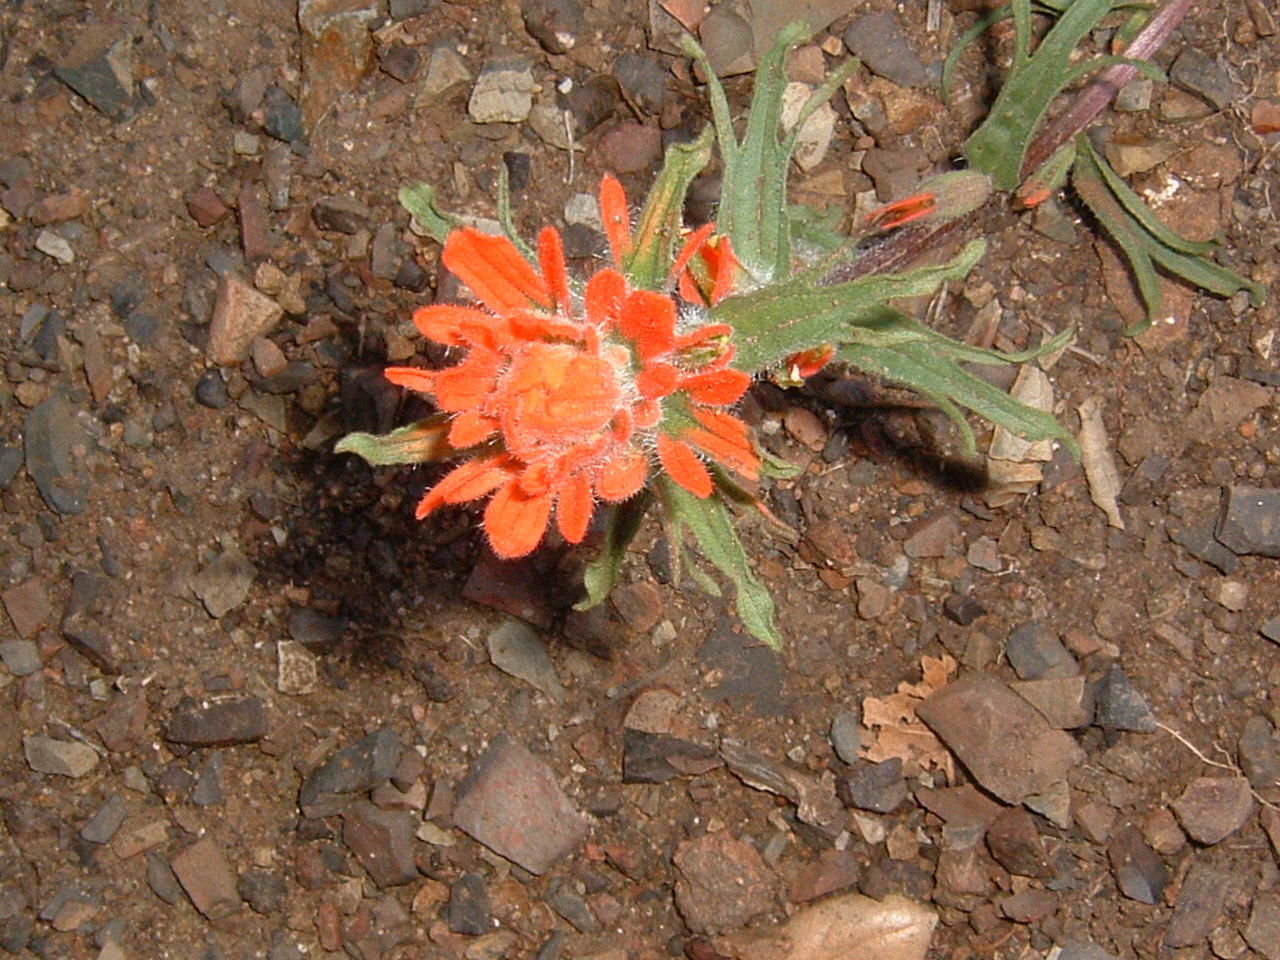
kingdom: Plantae
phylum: Tracheophyta
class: Magnoliopsida
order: Lamiales
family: Orobanchaceae
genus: Castilleja
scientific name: Castilleja affinis
